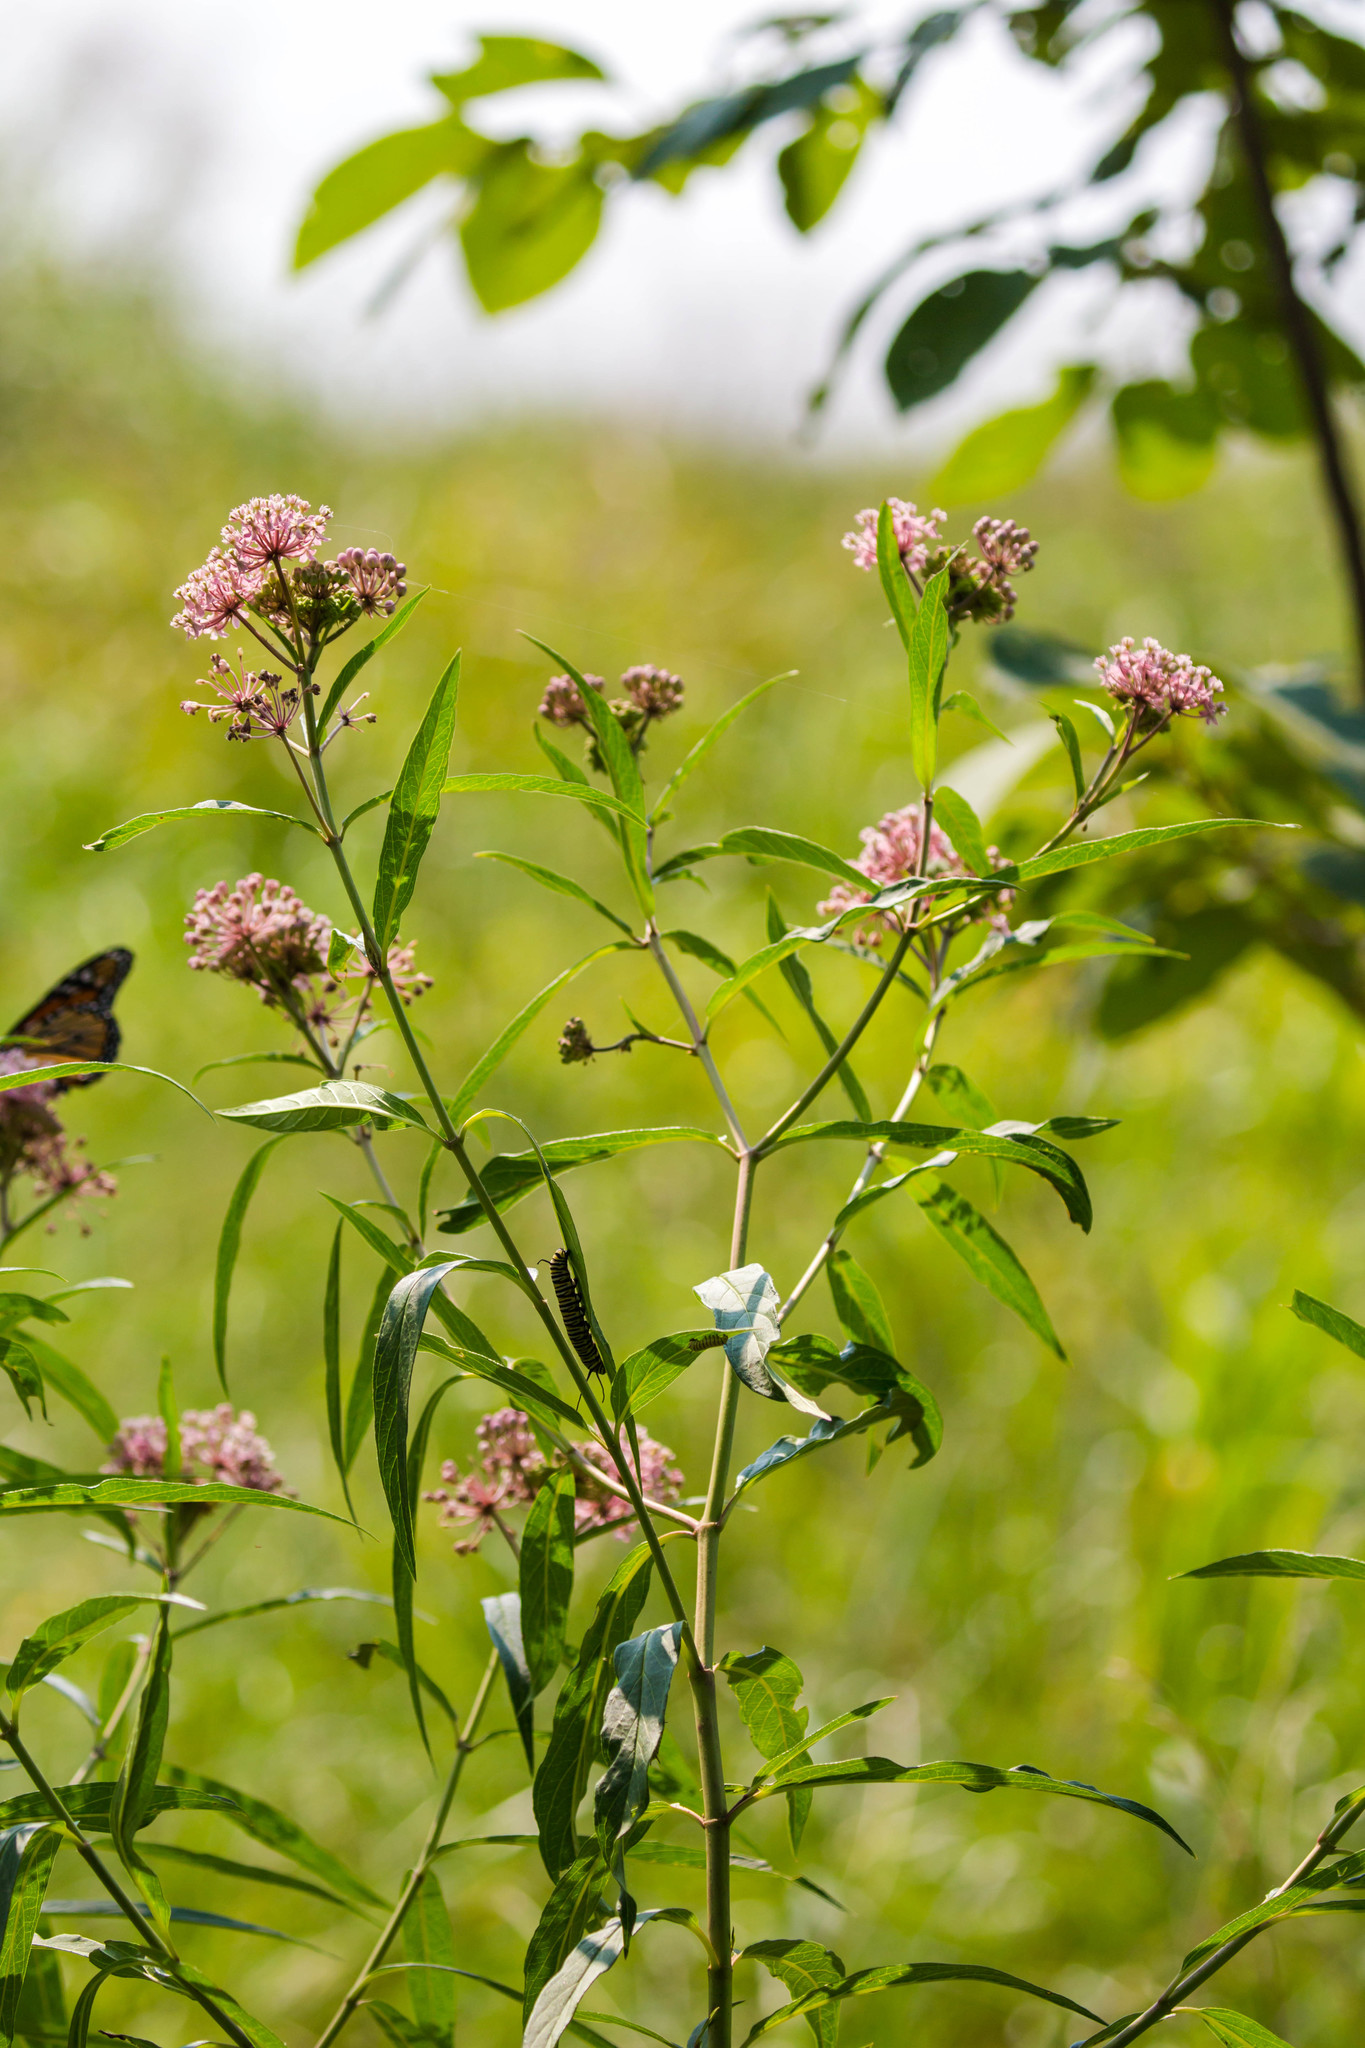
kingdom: Plantae
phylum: Tracheophyta
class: Magnoliopsida
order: Gentianales
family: Apocynaceae
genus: Asclepias
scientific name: Asclepias incarnata
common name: Swamp milkweed
